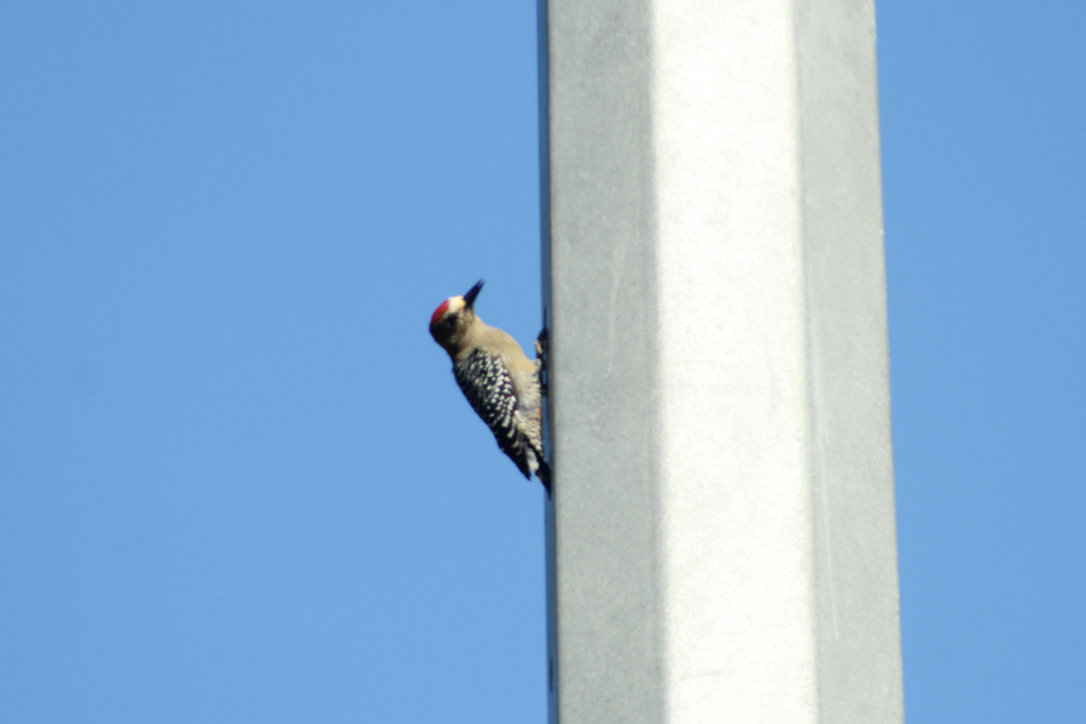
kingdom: Animalia
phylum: Chordata
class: Aves
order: Piciformes
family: Picidae
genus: Melanerpes
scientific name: Melanerpes rubricapillus
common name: Red-crowned woodpecker
